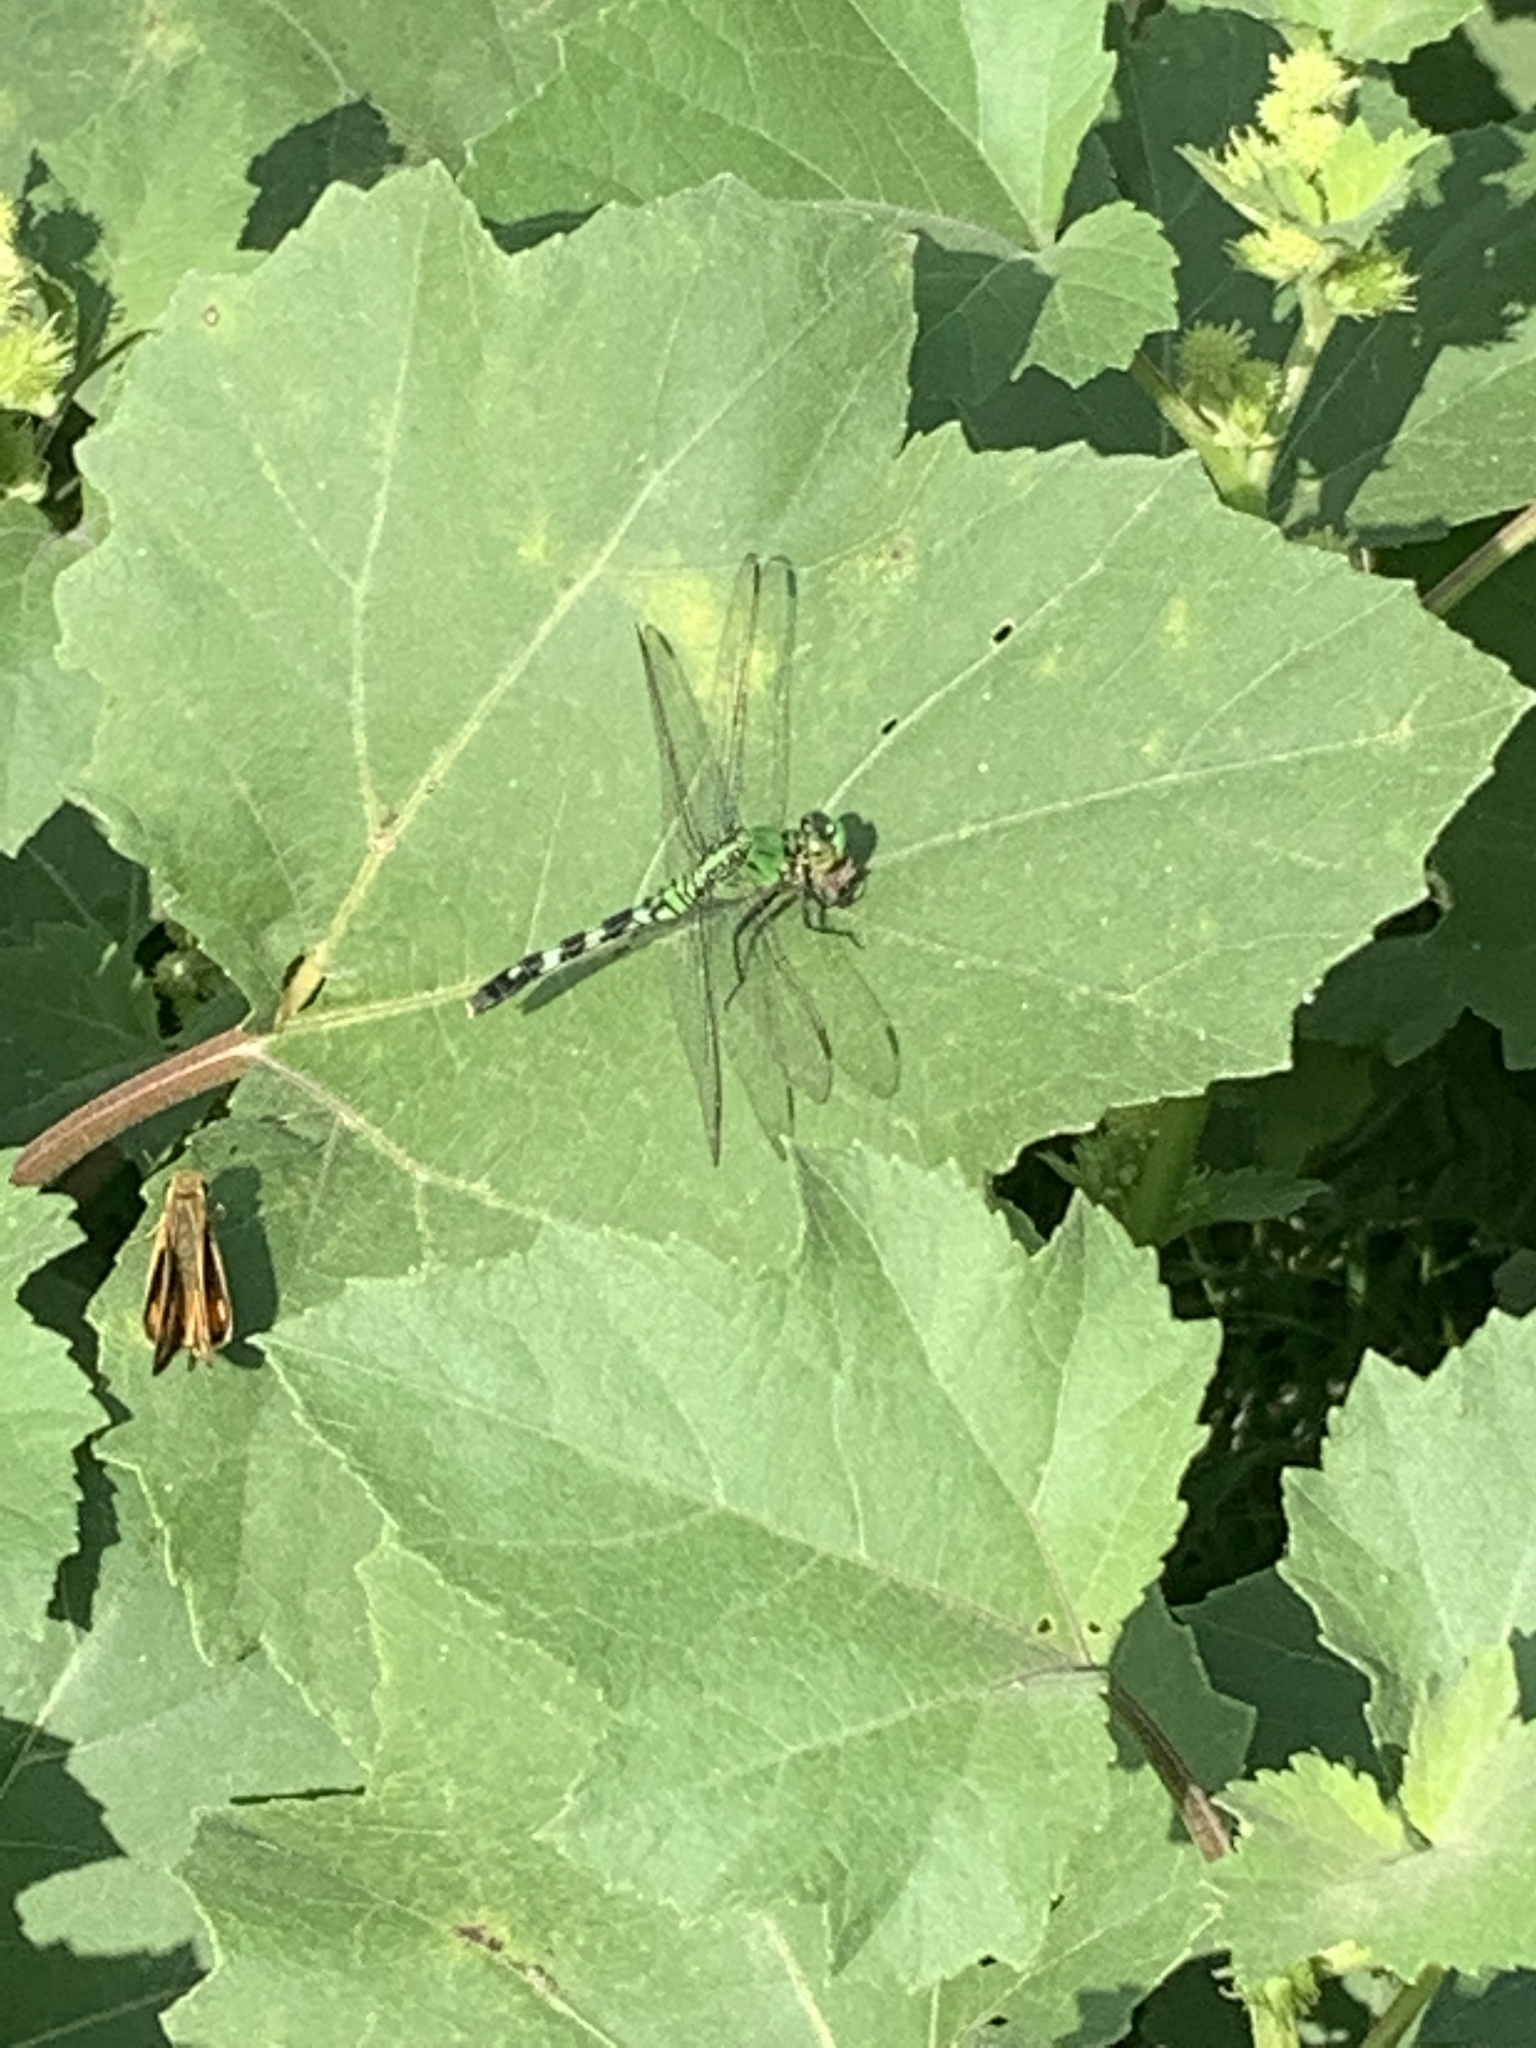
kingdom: Animalia
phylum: Arthropoda
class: Insecta
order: Odonata
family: Libellulidae
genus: Erythemis
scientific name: Erythemis simplicicollis
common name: Eastern pondhawk
